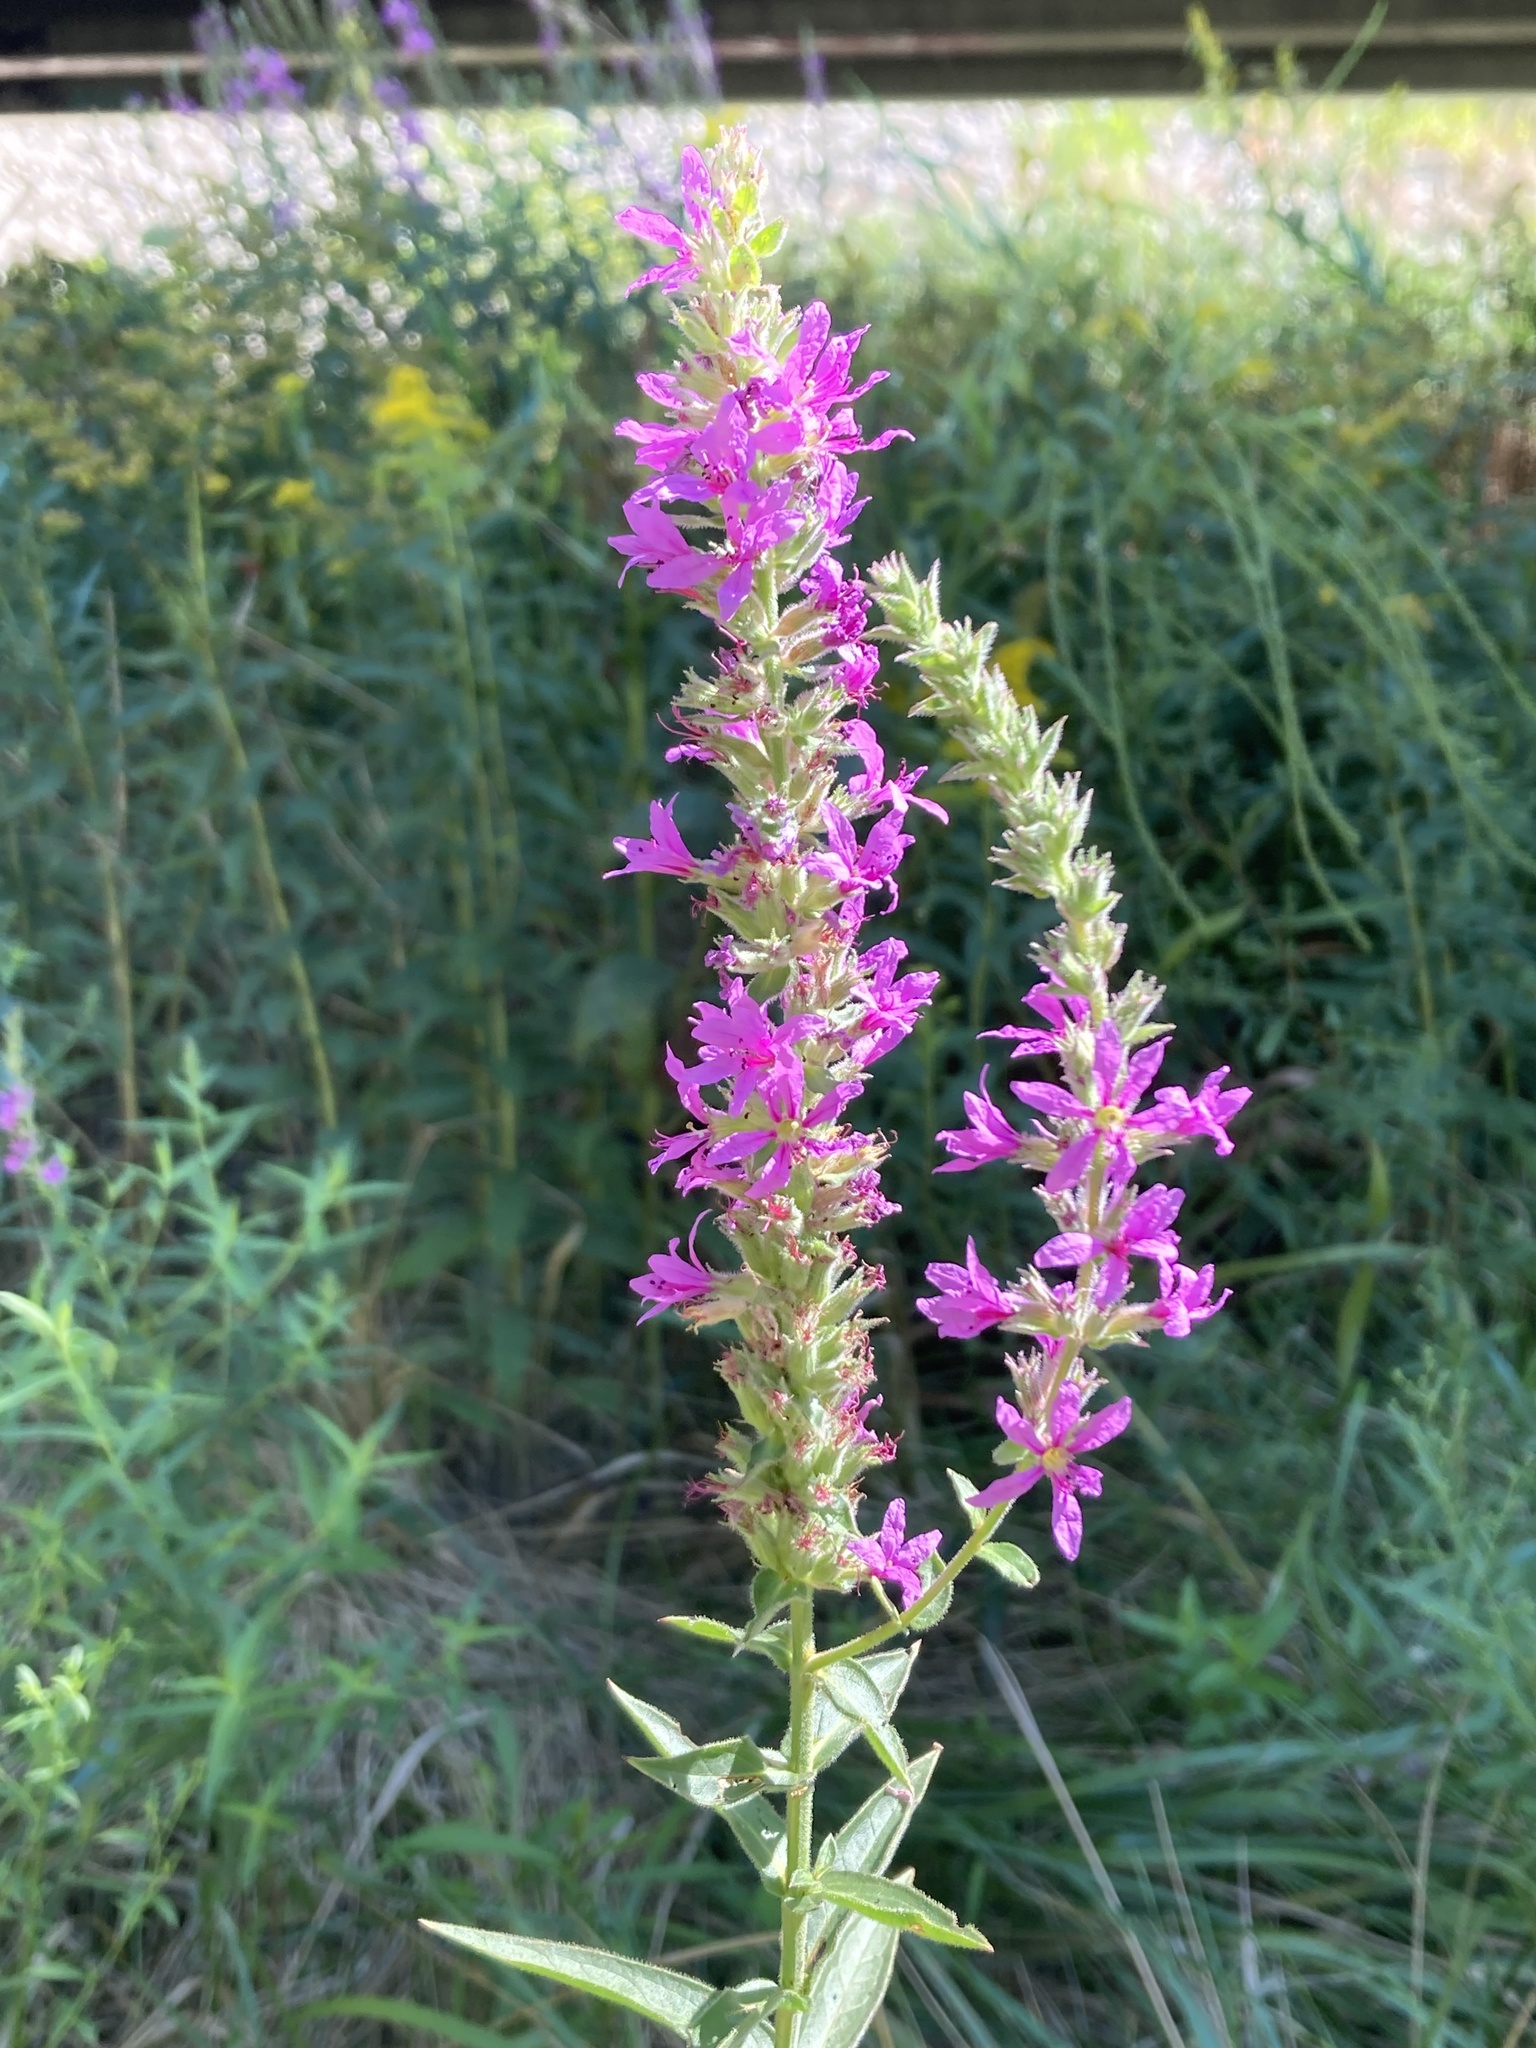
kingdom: Plantae
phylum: Tracheophyta
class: Magnoliopsida
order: Myrtales
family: Lythraceae
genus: Lythrum
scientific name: Lythrum salicaria
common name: Purple loosestrife
